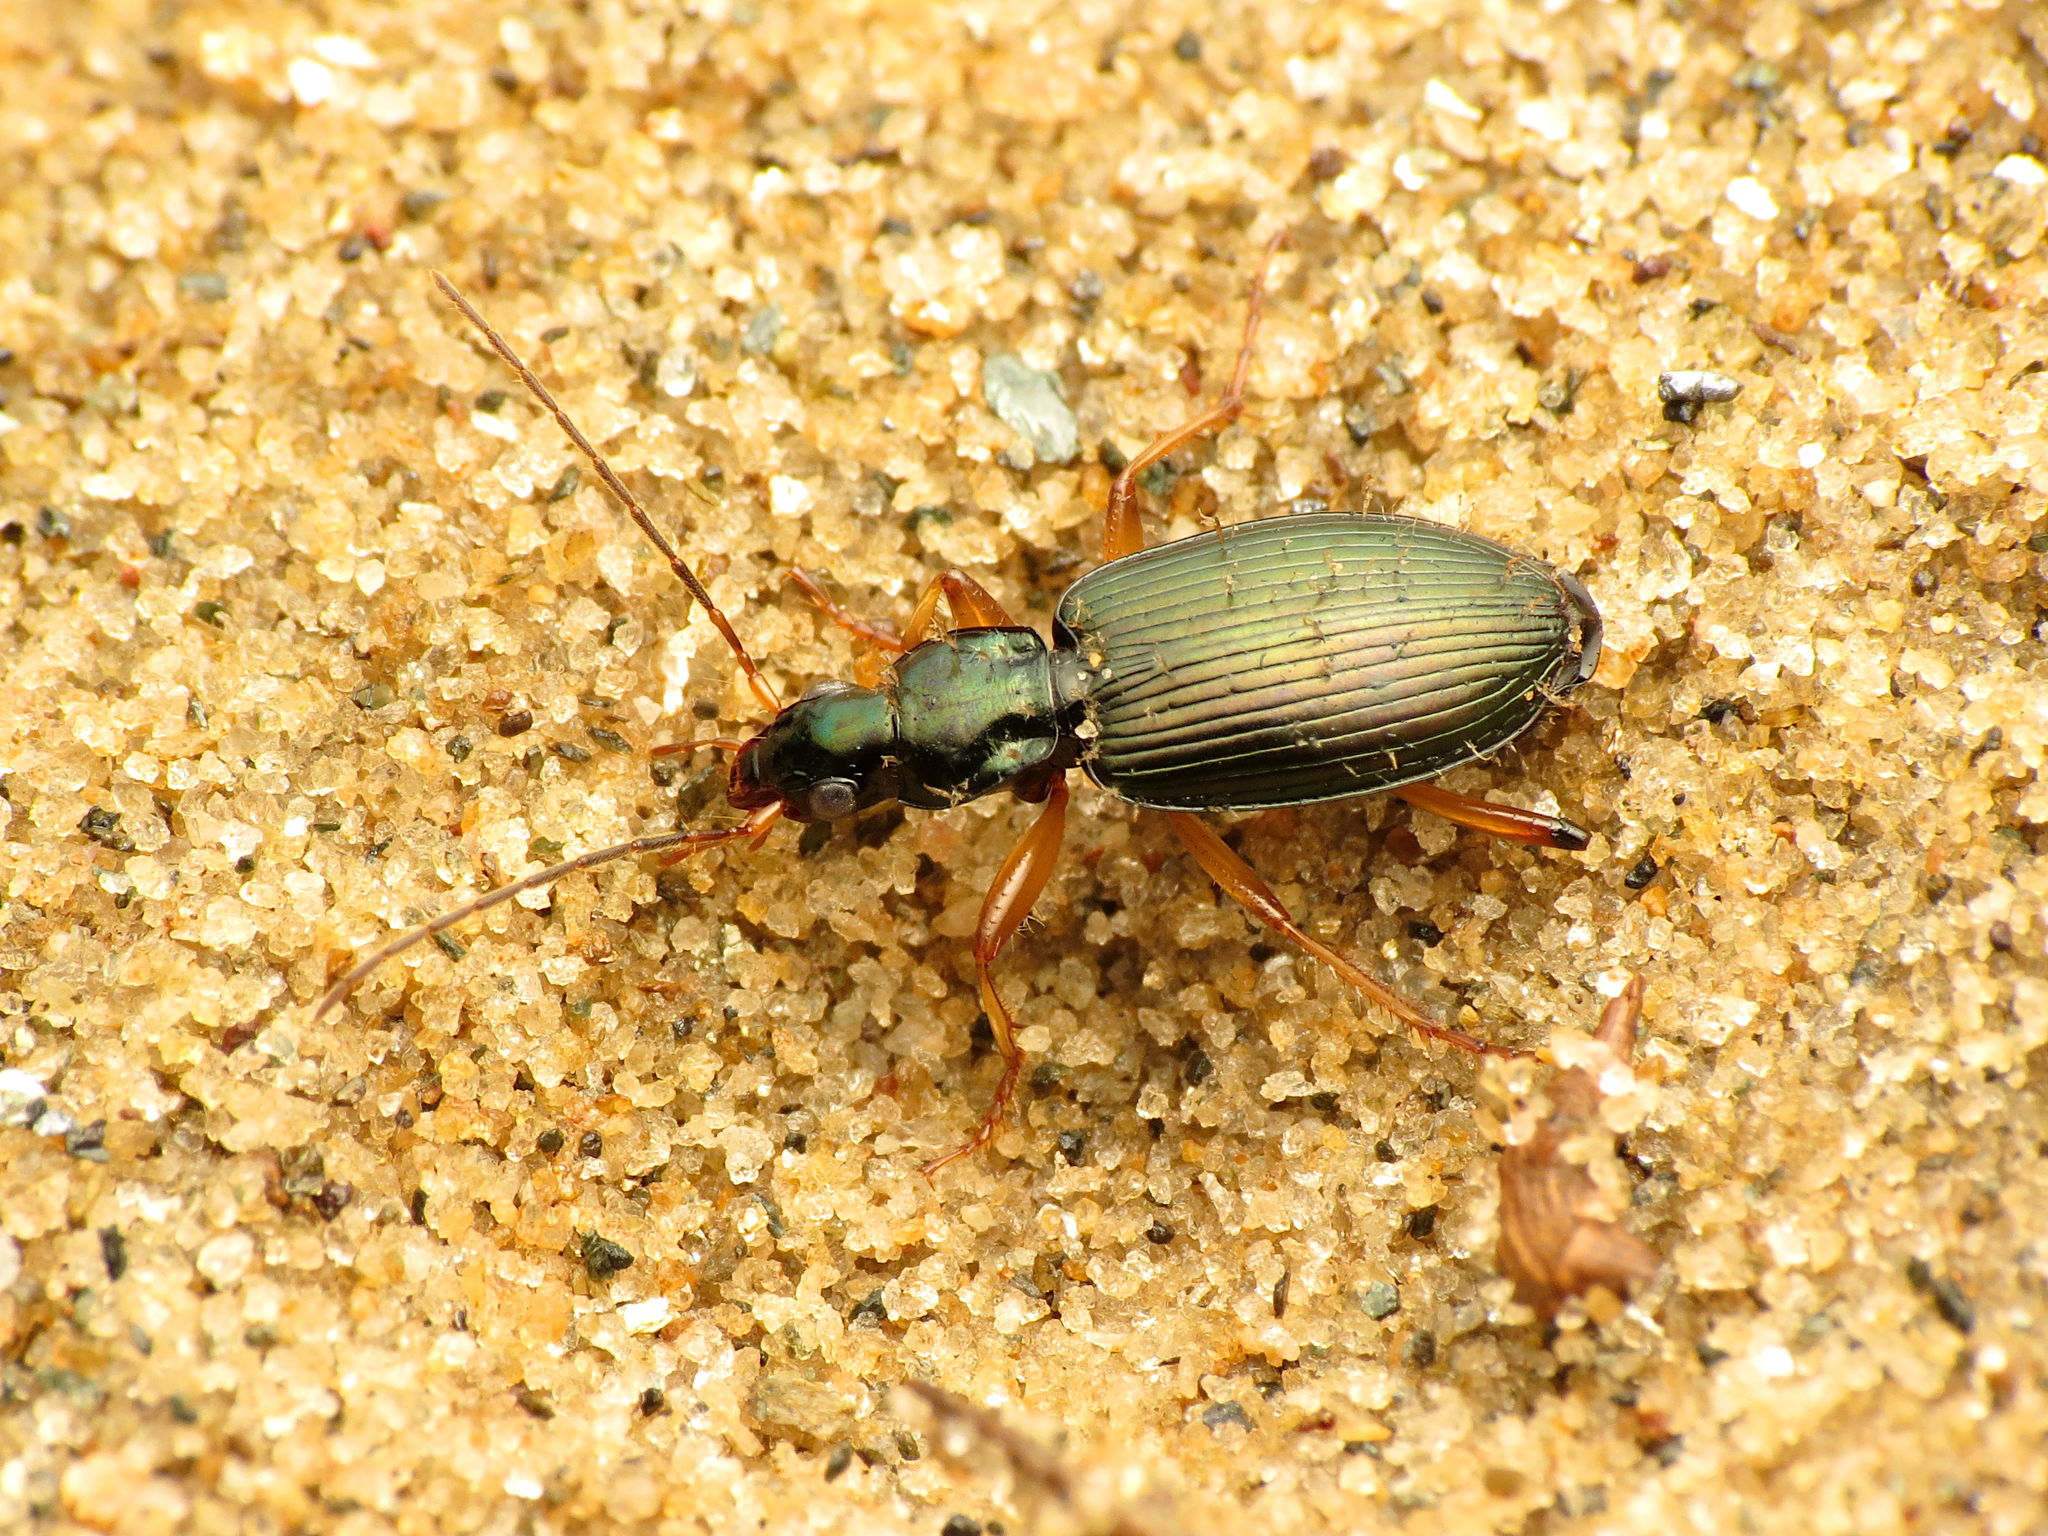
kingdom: Animalia
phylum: Arthropoda
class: Insecta
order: Coleoptera
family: Carabidae
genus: Agonum
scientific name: Agonum extensicolle
